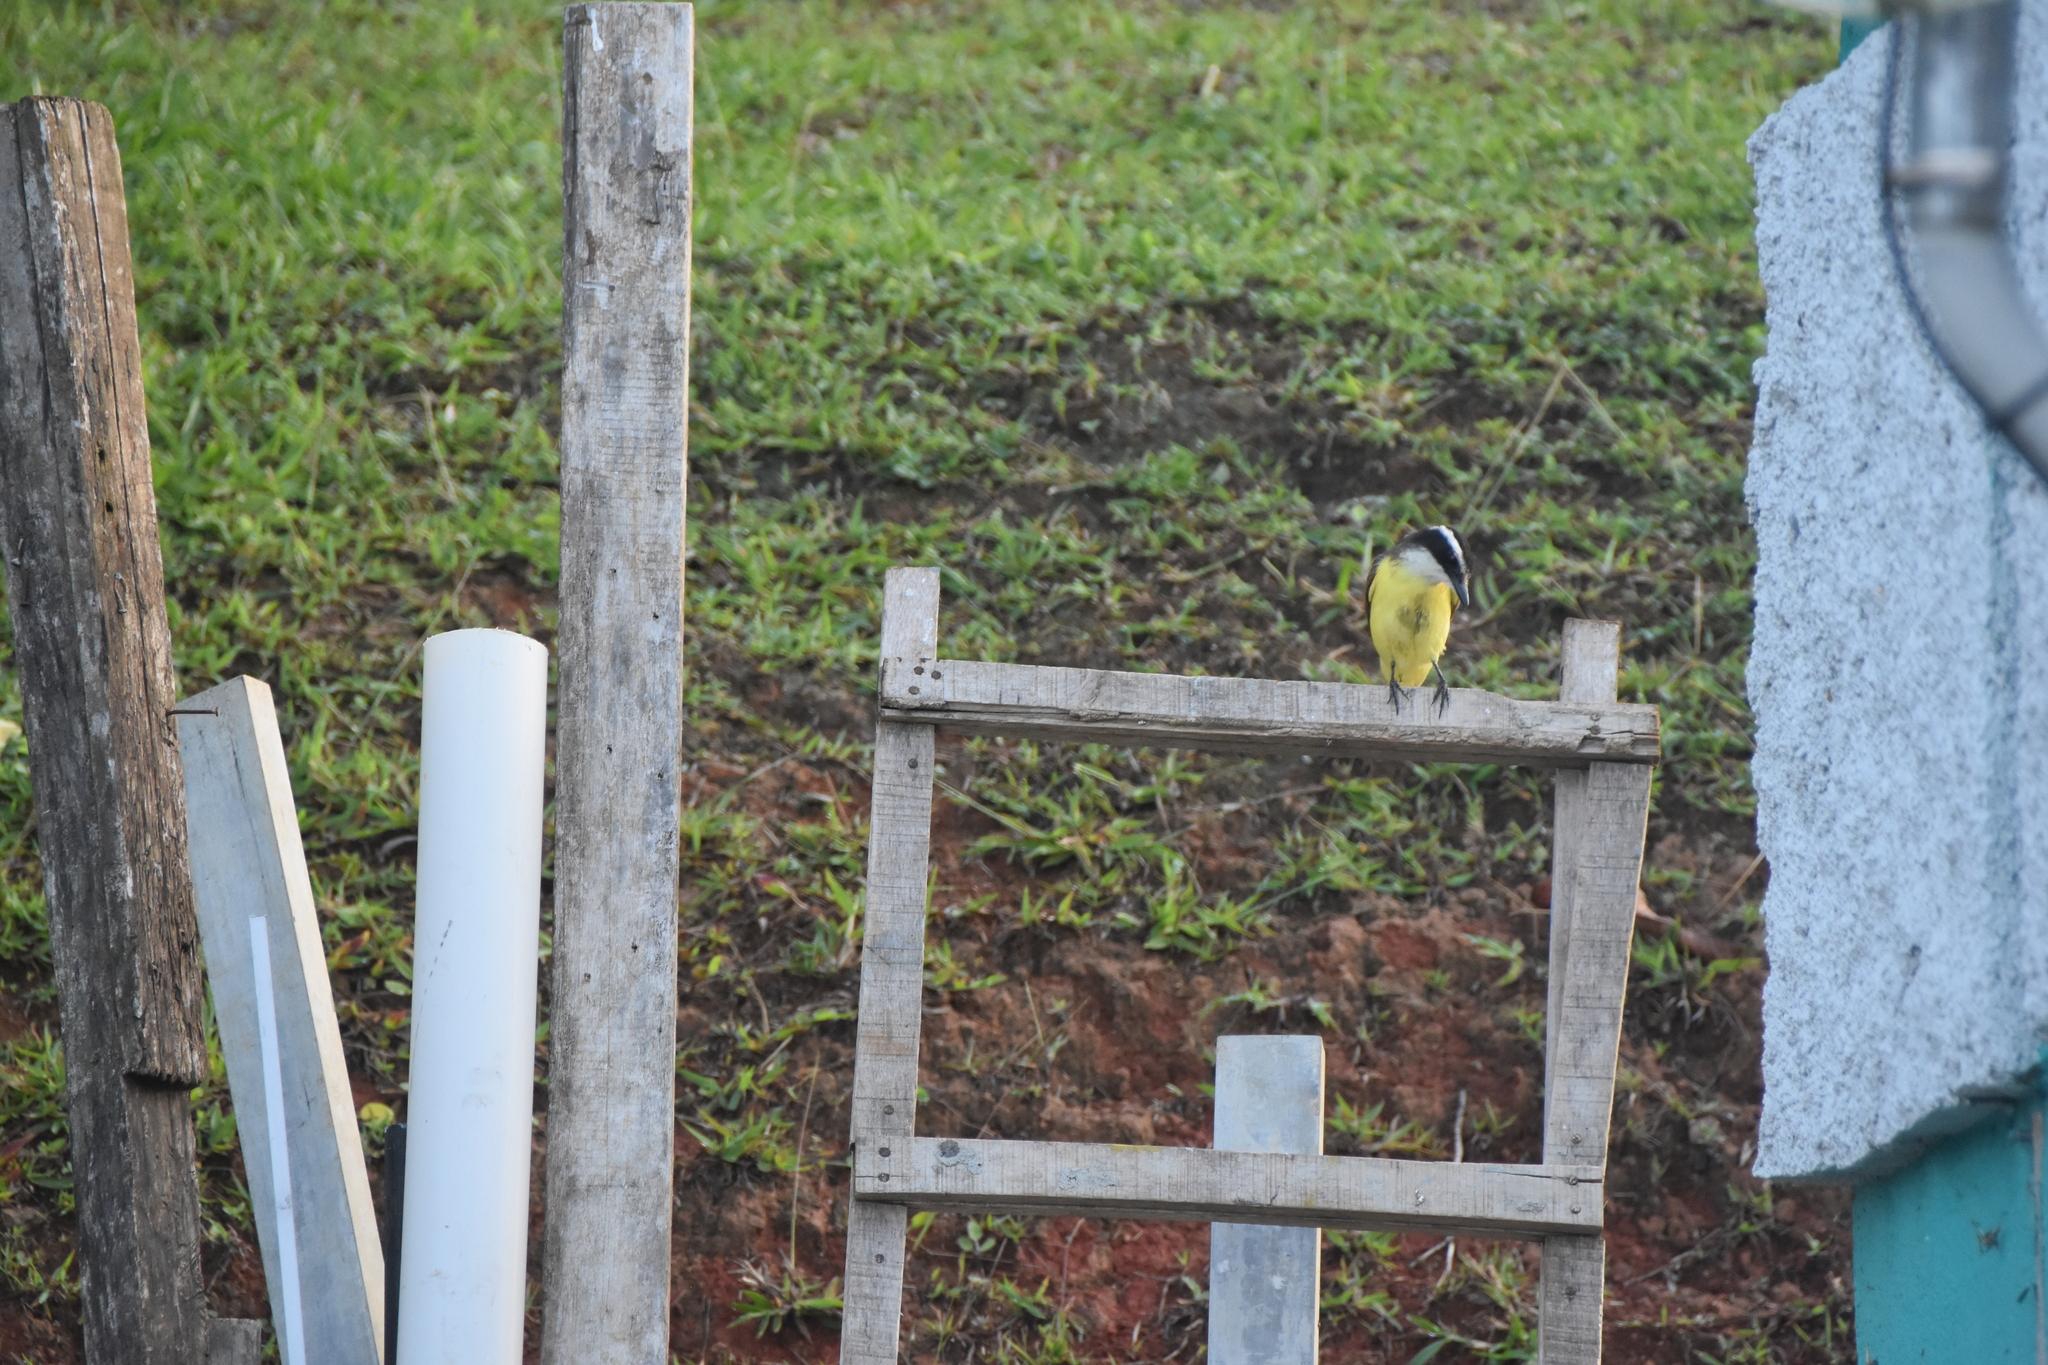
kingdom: Animalia
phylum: Chordata
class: Aves
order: Passeriformes
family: Tyrannidae
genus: Pitangus
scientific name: Pitangus sulphuratus
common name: Great kiskadee
